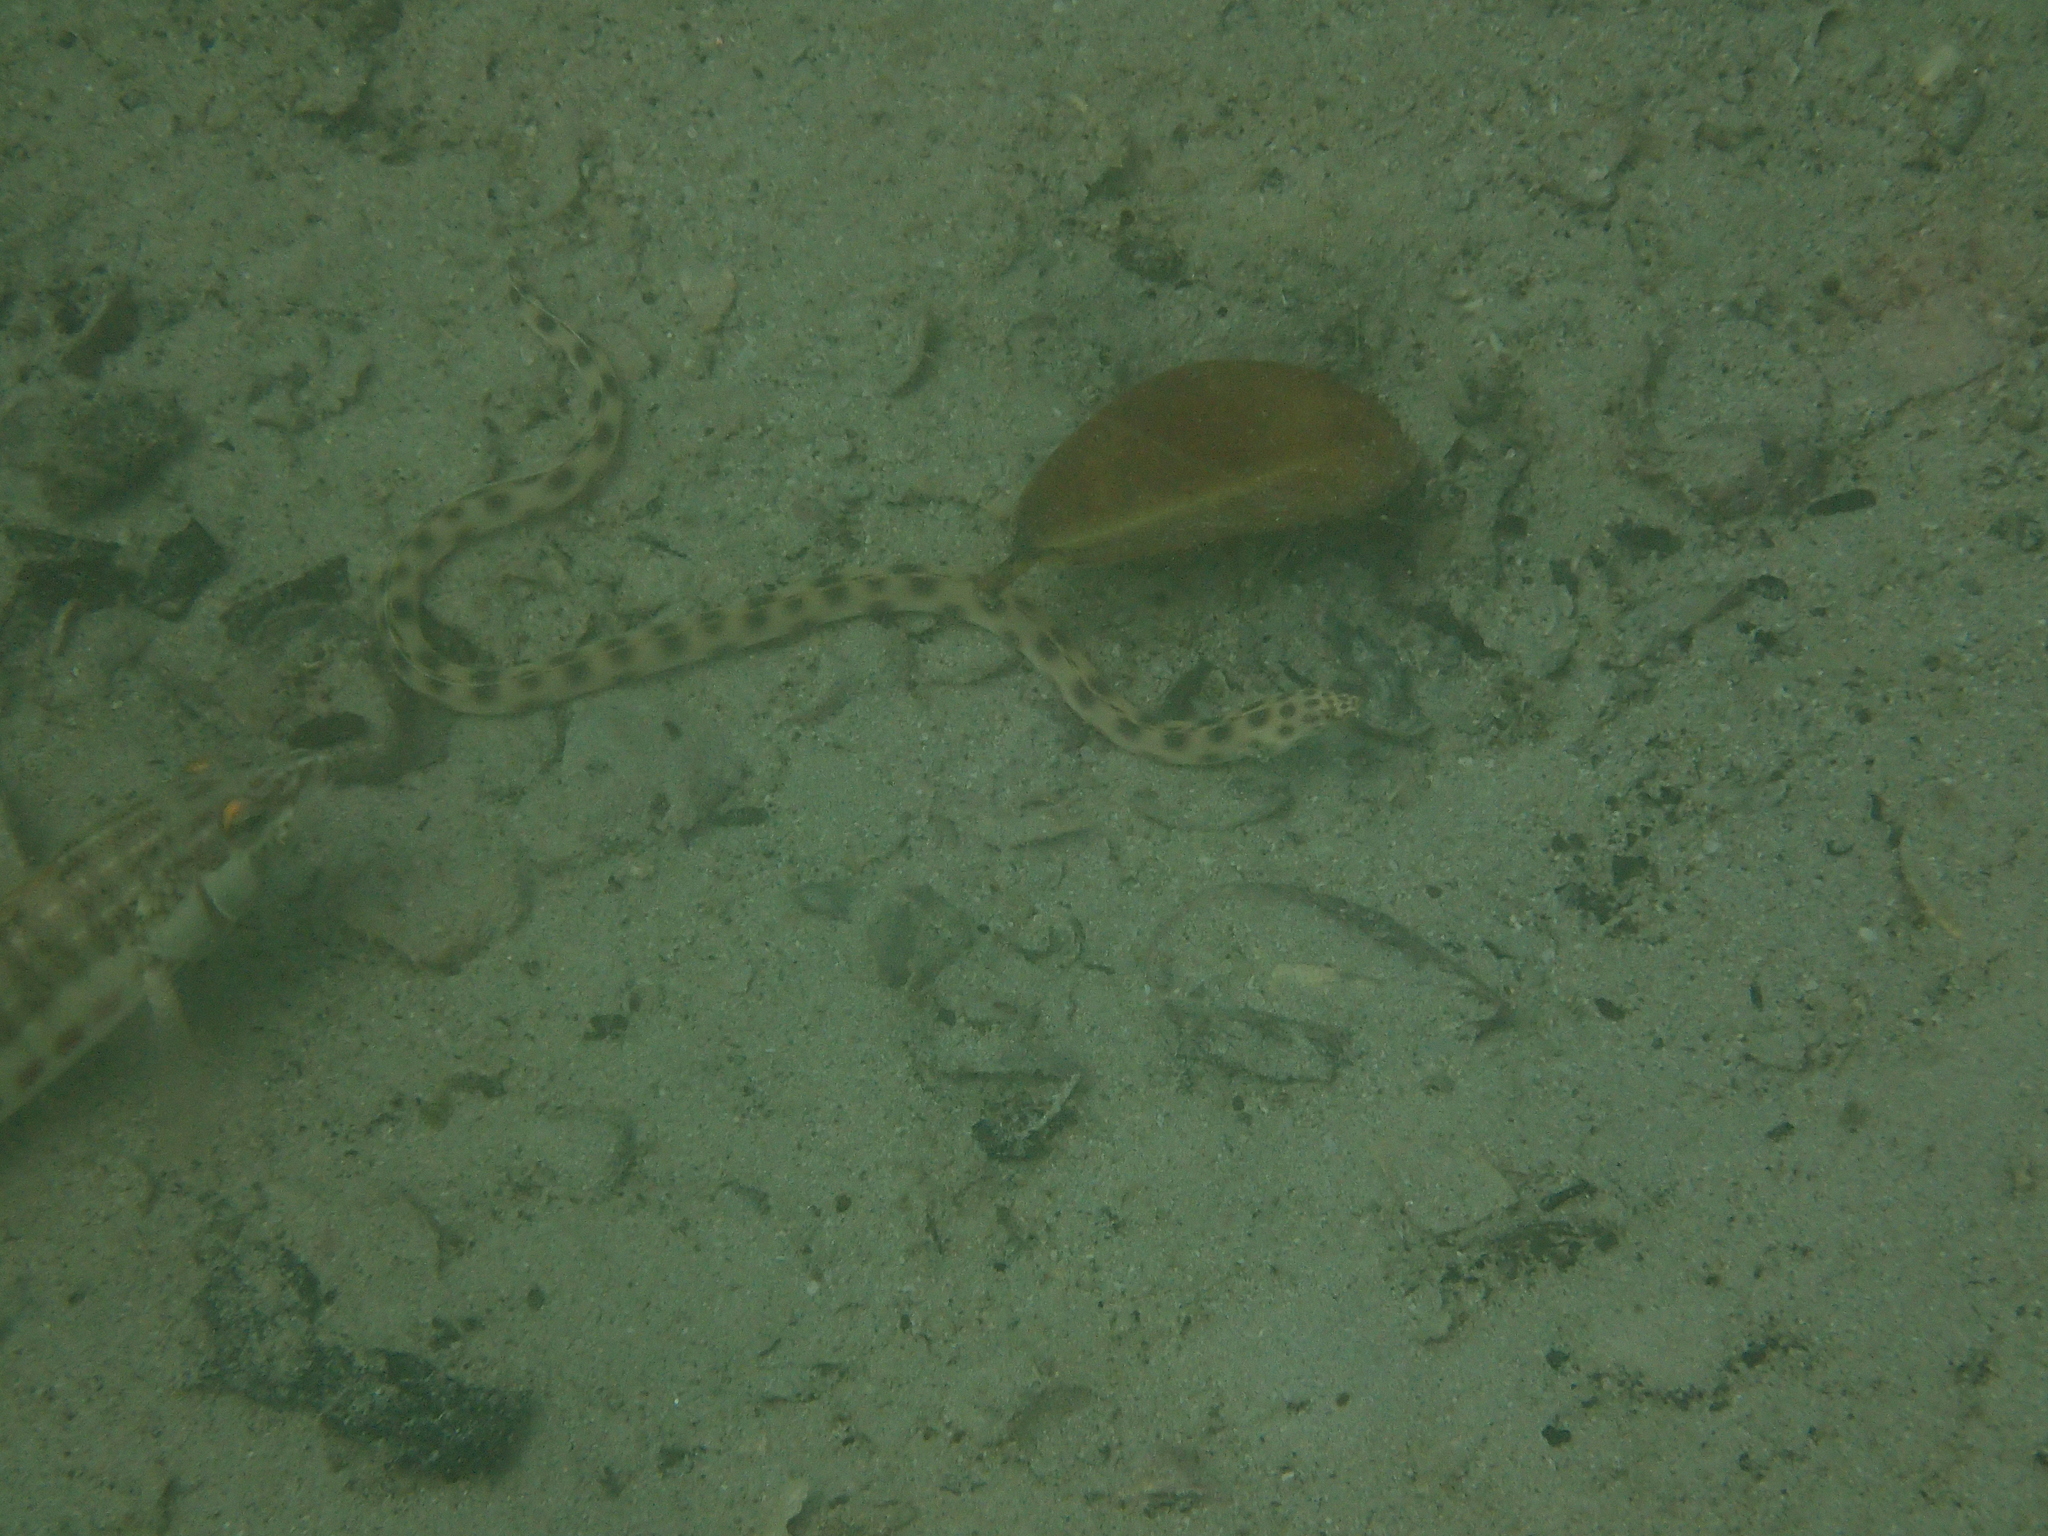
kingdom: Animalia
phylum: Chordata
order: Anguilliformes
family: Ophichthidae
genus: Myrichthys
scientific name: Myrichthys xysturus
